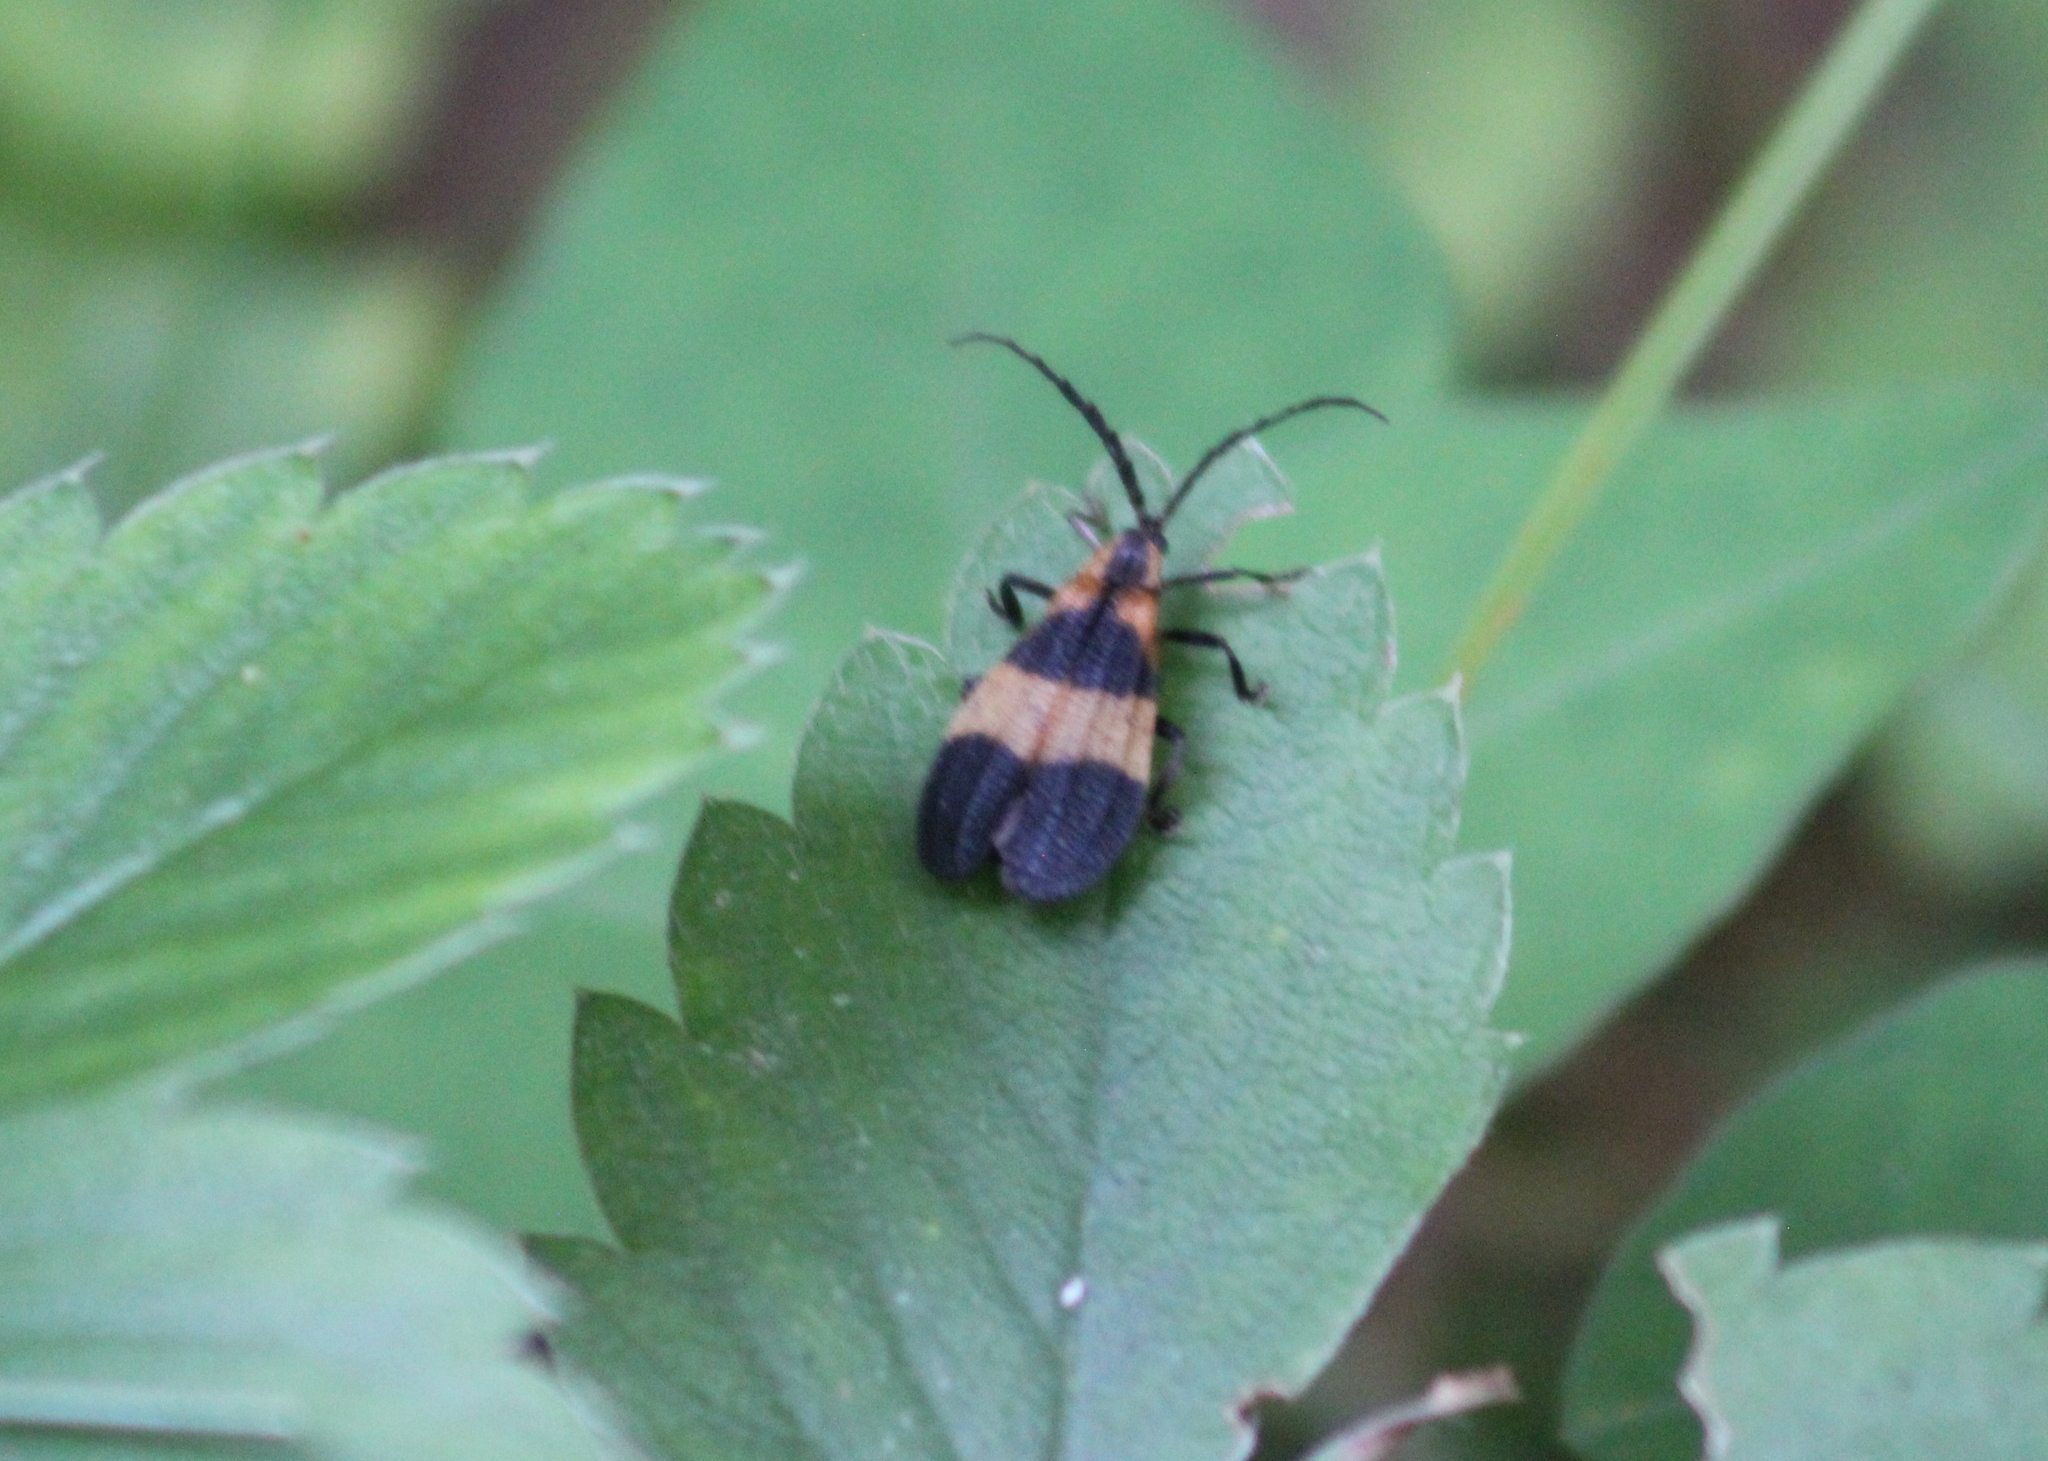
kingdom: Animalia
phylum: Arthropoda
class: Insecta
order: Coleoptera
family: Lycidae
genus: Calopteron
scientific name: Calopteron reticulatum
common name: Banded net-winged beetle
